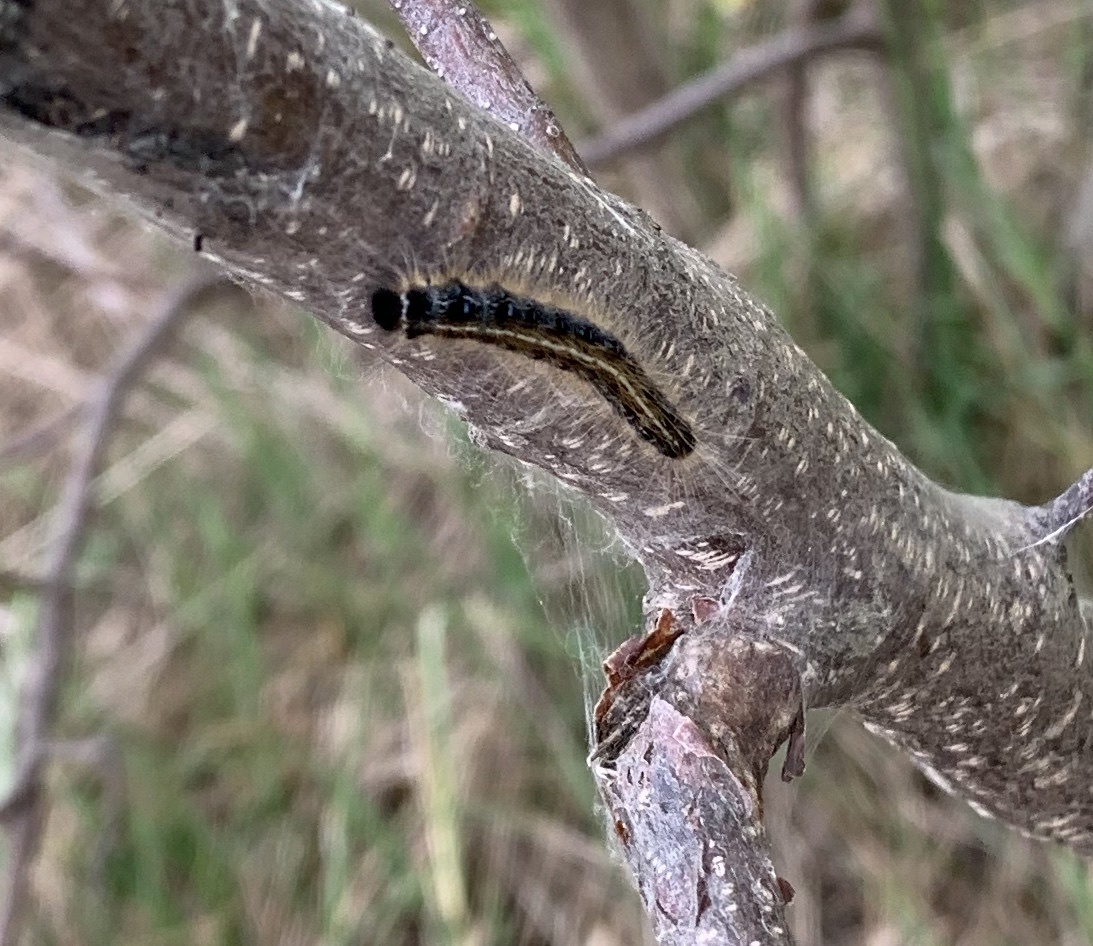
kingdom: Animalia
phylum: Arthropoda
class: Insecta
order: Lepidoptera
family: Lasiocampidae
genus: Malacosoma
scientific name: Malacosoma americana
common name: Eastern tent caterpillar moth
